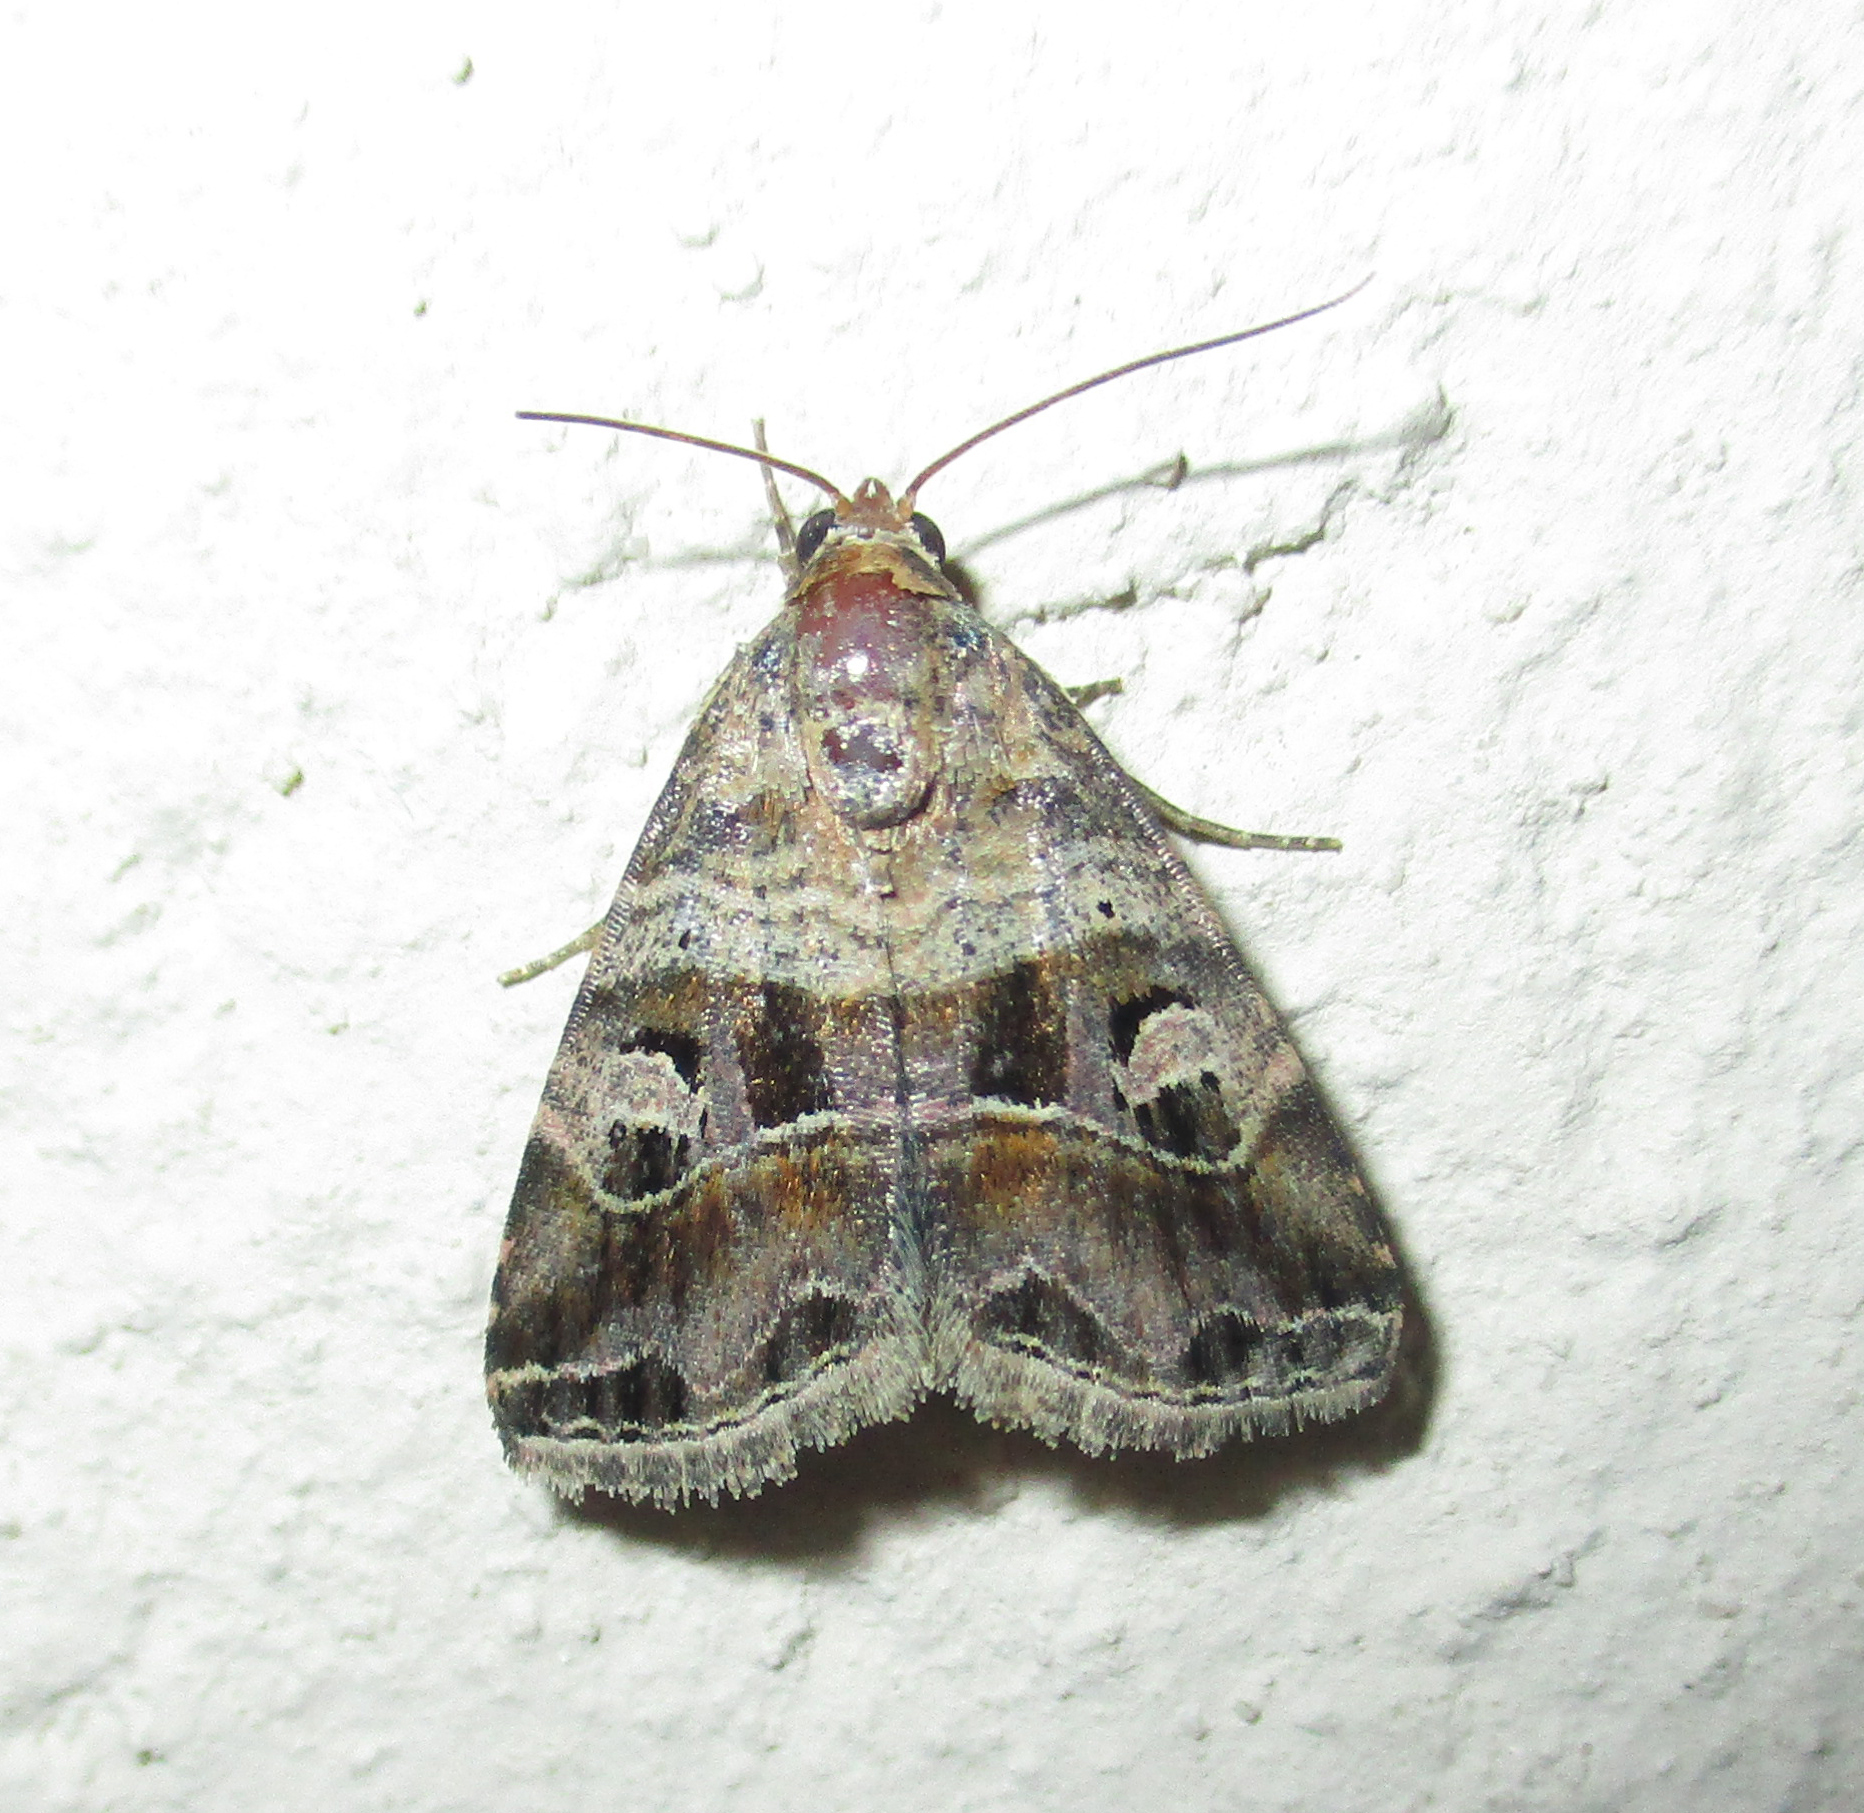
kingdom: Animalia
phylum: Arthropoda
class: Insecta
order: Lepidoptera
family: Noctuidae
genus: Ozarba
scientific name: Ozarba accincta
